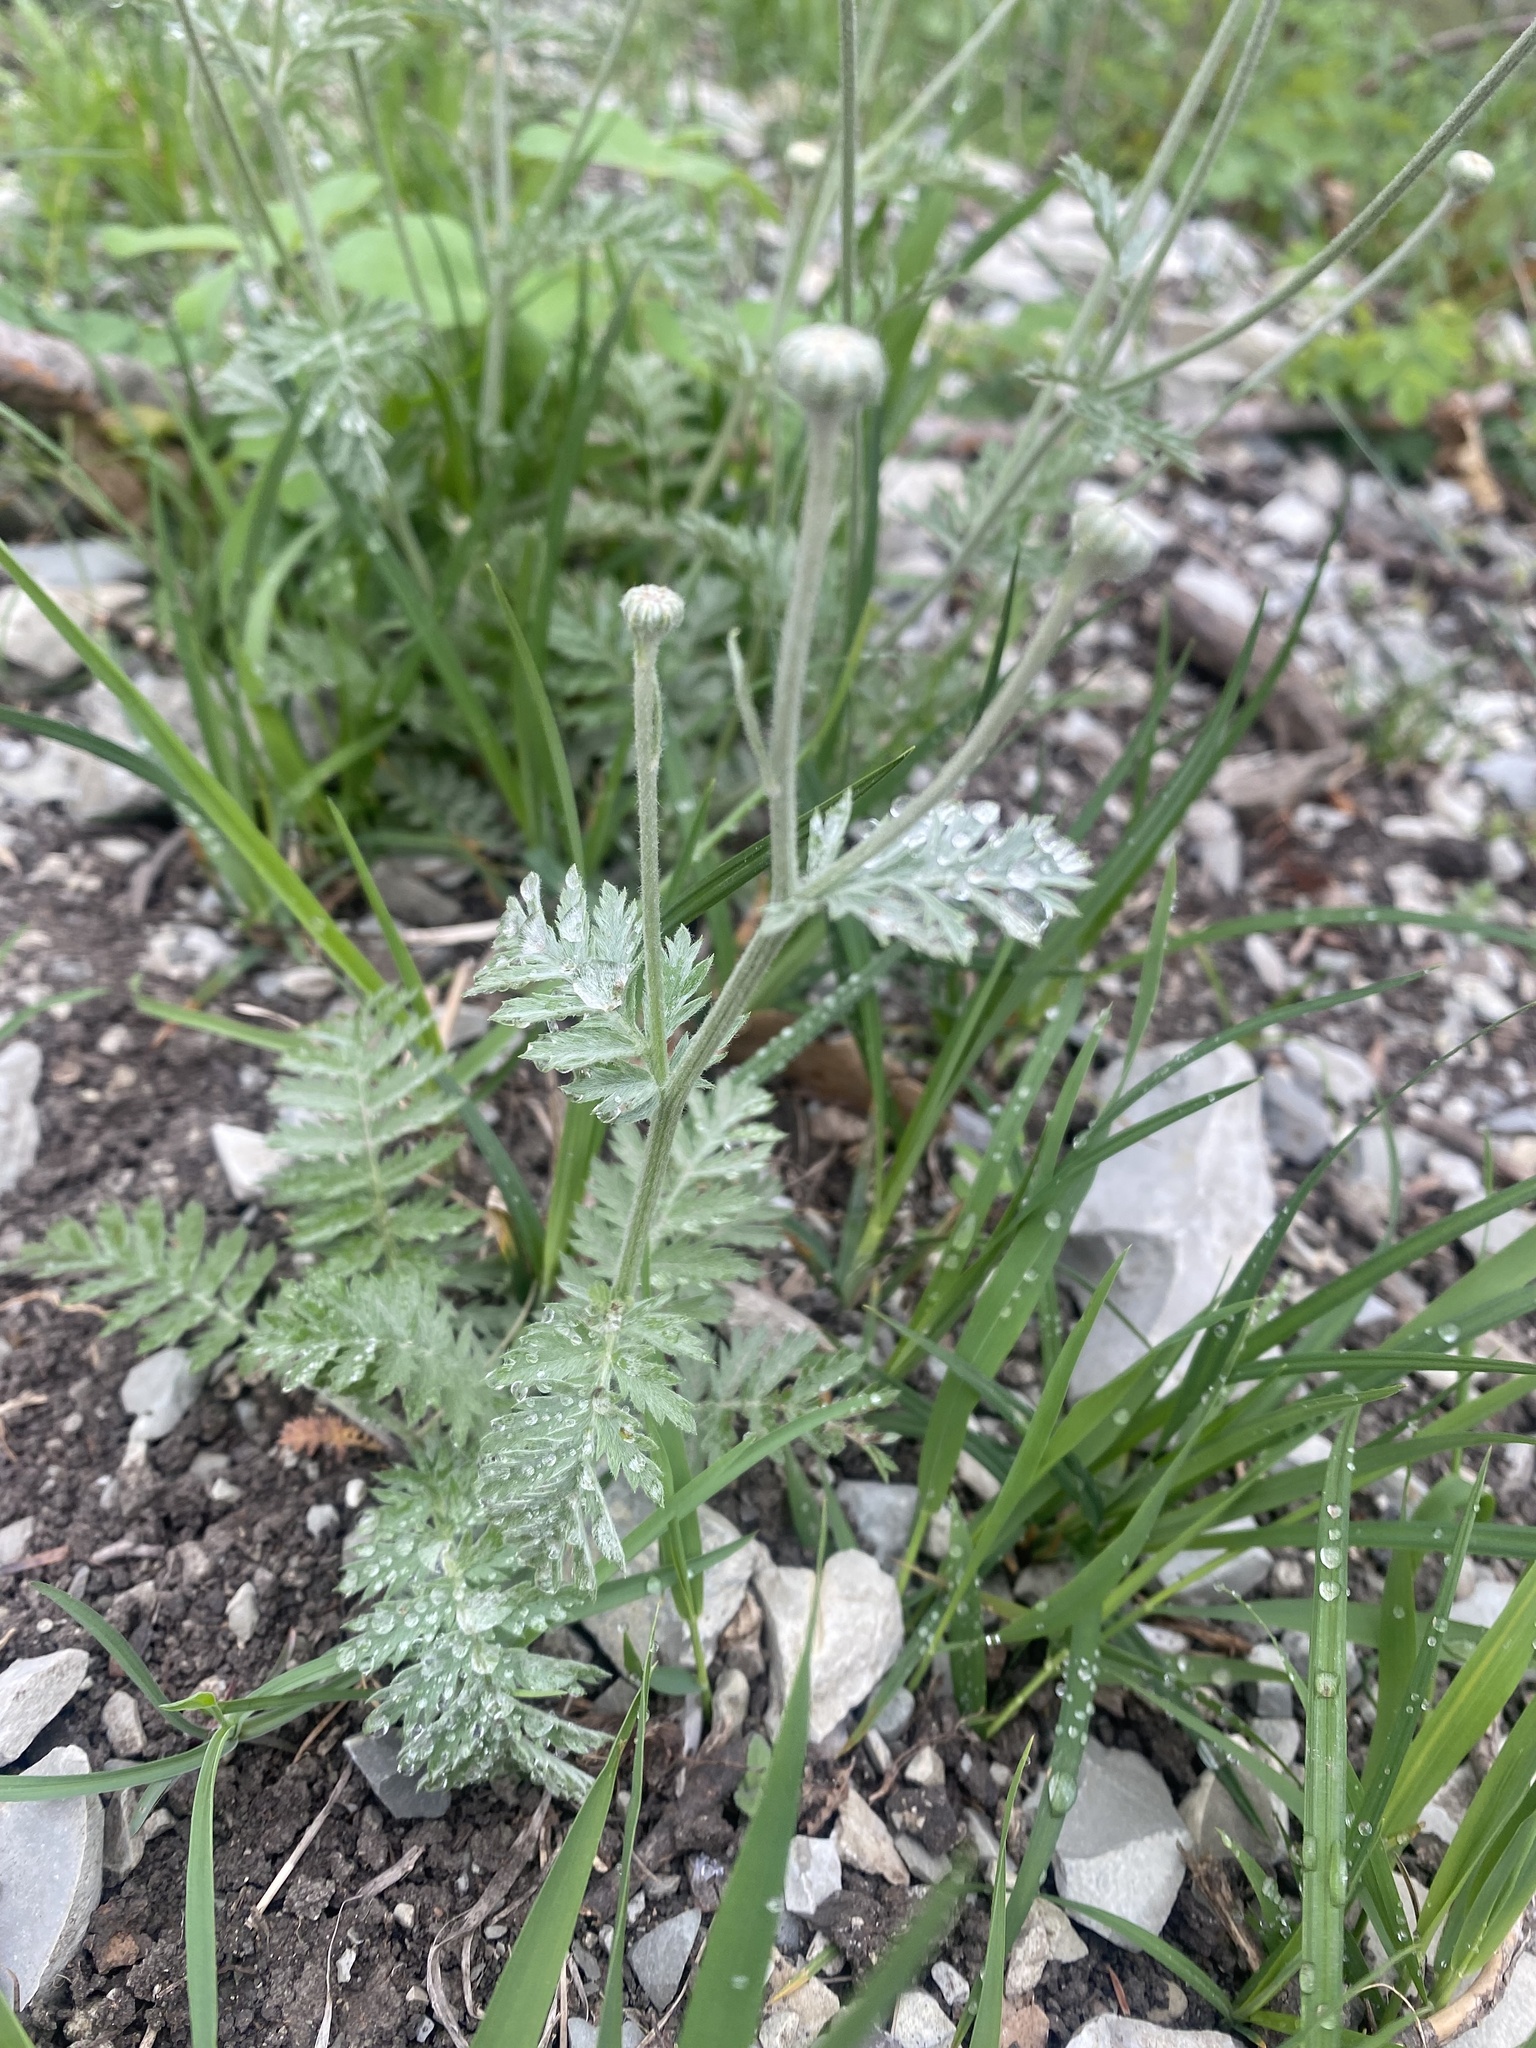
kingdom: Plantae
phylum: Tracheophyta
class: Magnoliopsida
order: Asterales
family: Asteraceae
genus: Tanacetum
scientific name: Tanacetum poteriifolium
